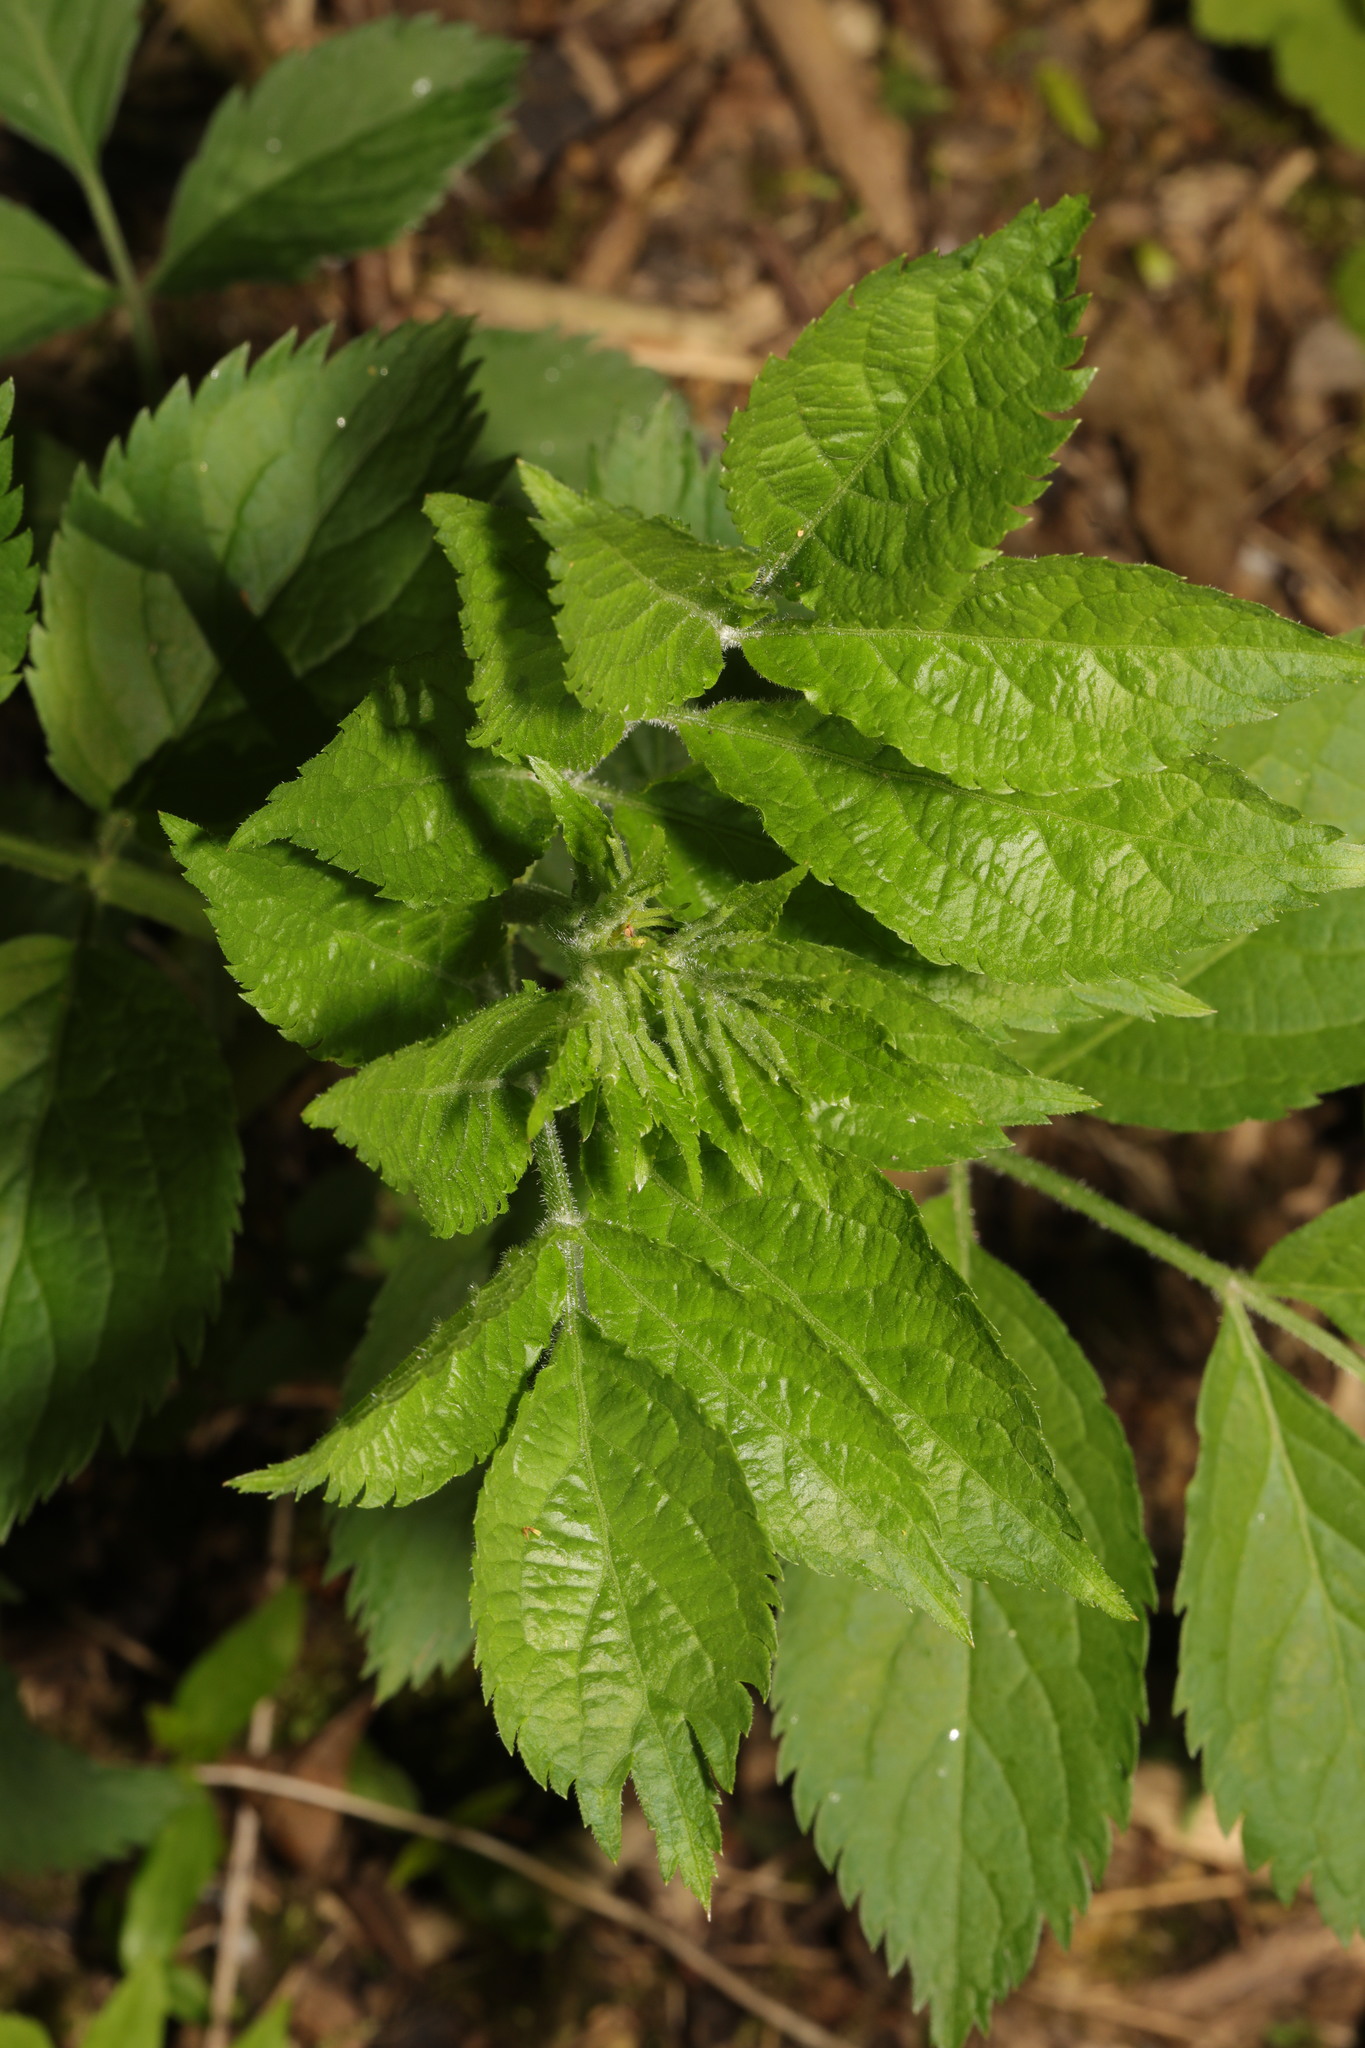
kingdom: Plantae
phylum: Tracheophyta
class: Magnoliopsida
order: Dipsacales
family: Viburnaceae
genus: Sambucus
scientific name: Sambucus nigra
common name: Elder
